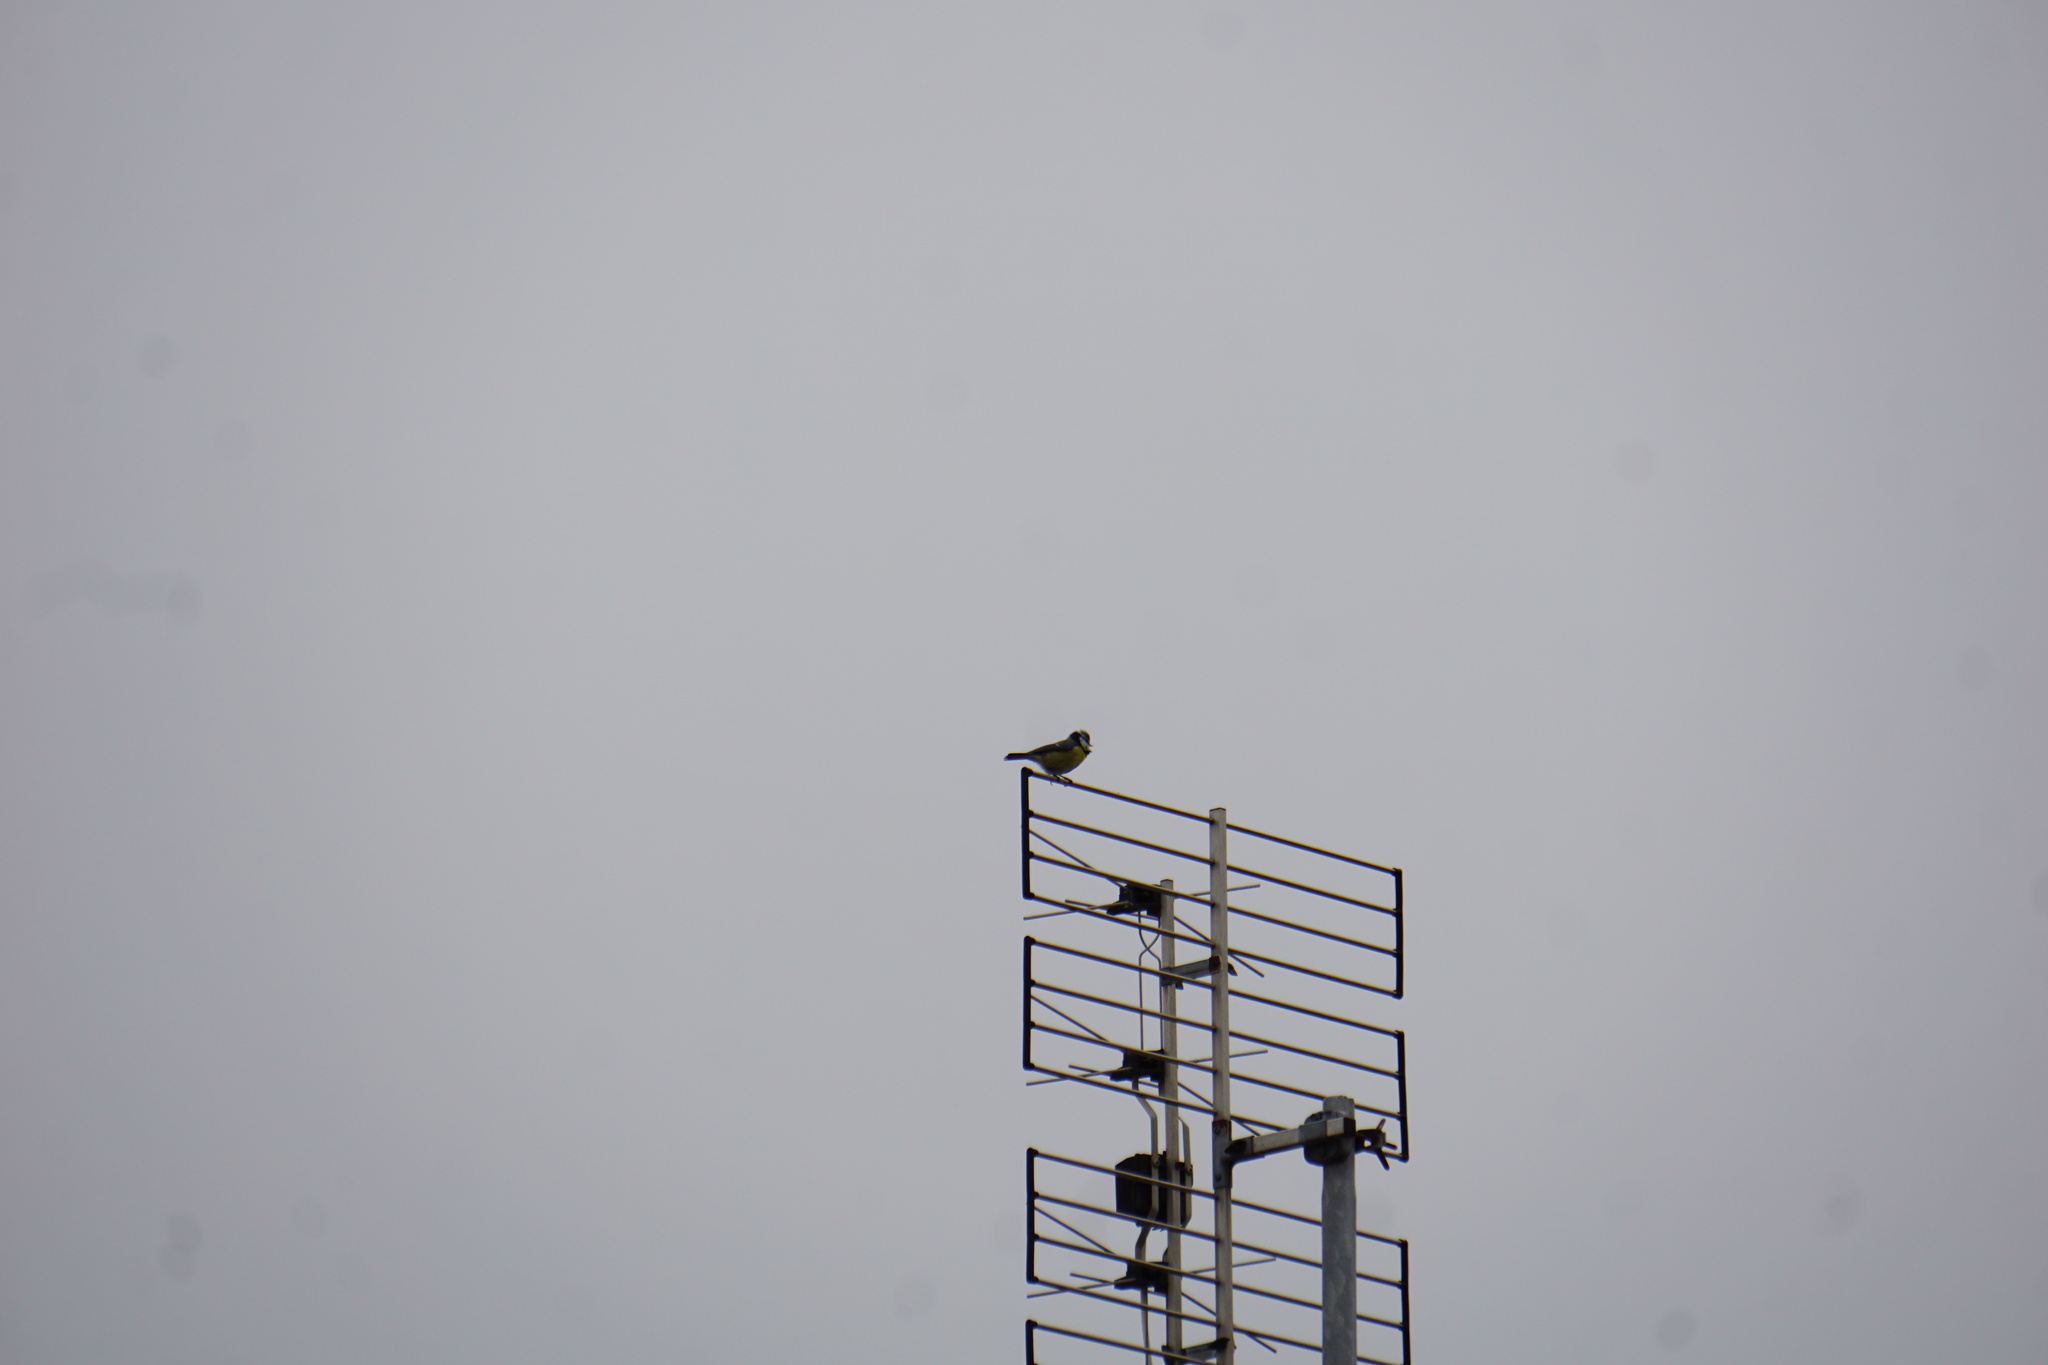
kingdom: Animalia
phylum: Chordata
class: Aves
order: Passeriformes
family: Paridae
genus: Cyanistes
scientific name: Cyanistes caeruleus
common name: Eurasian blue tit
